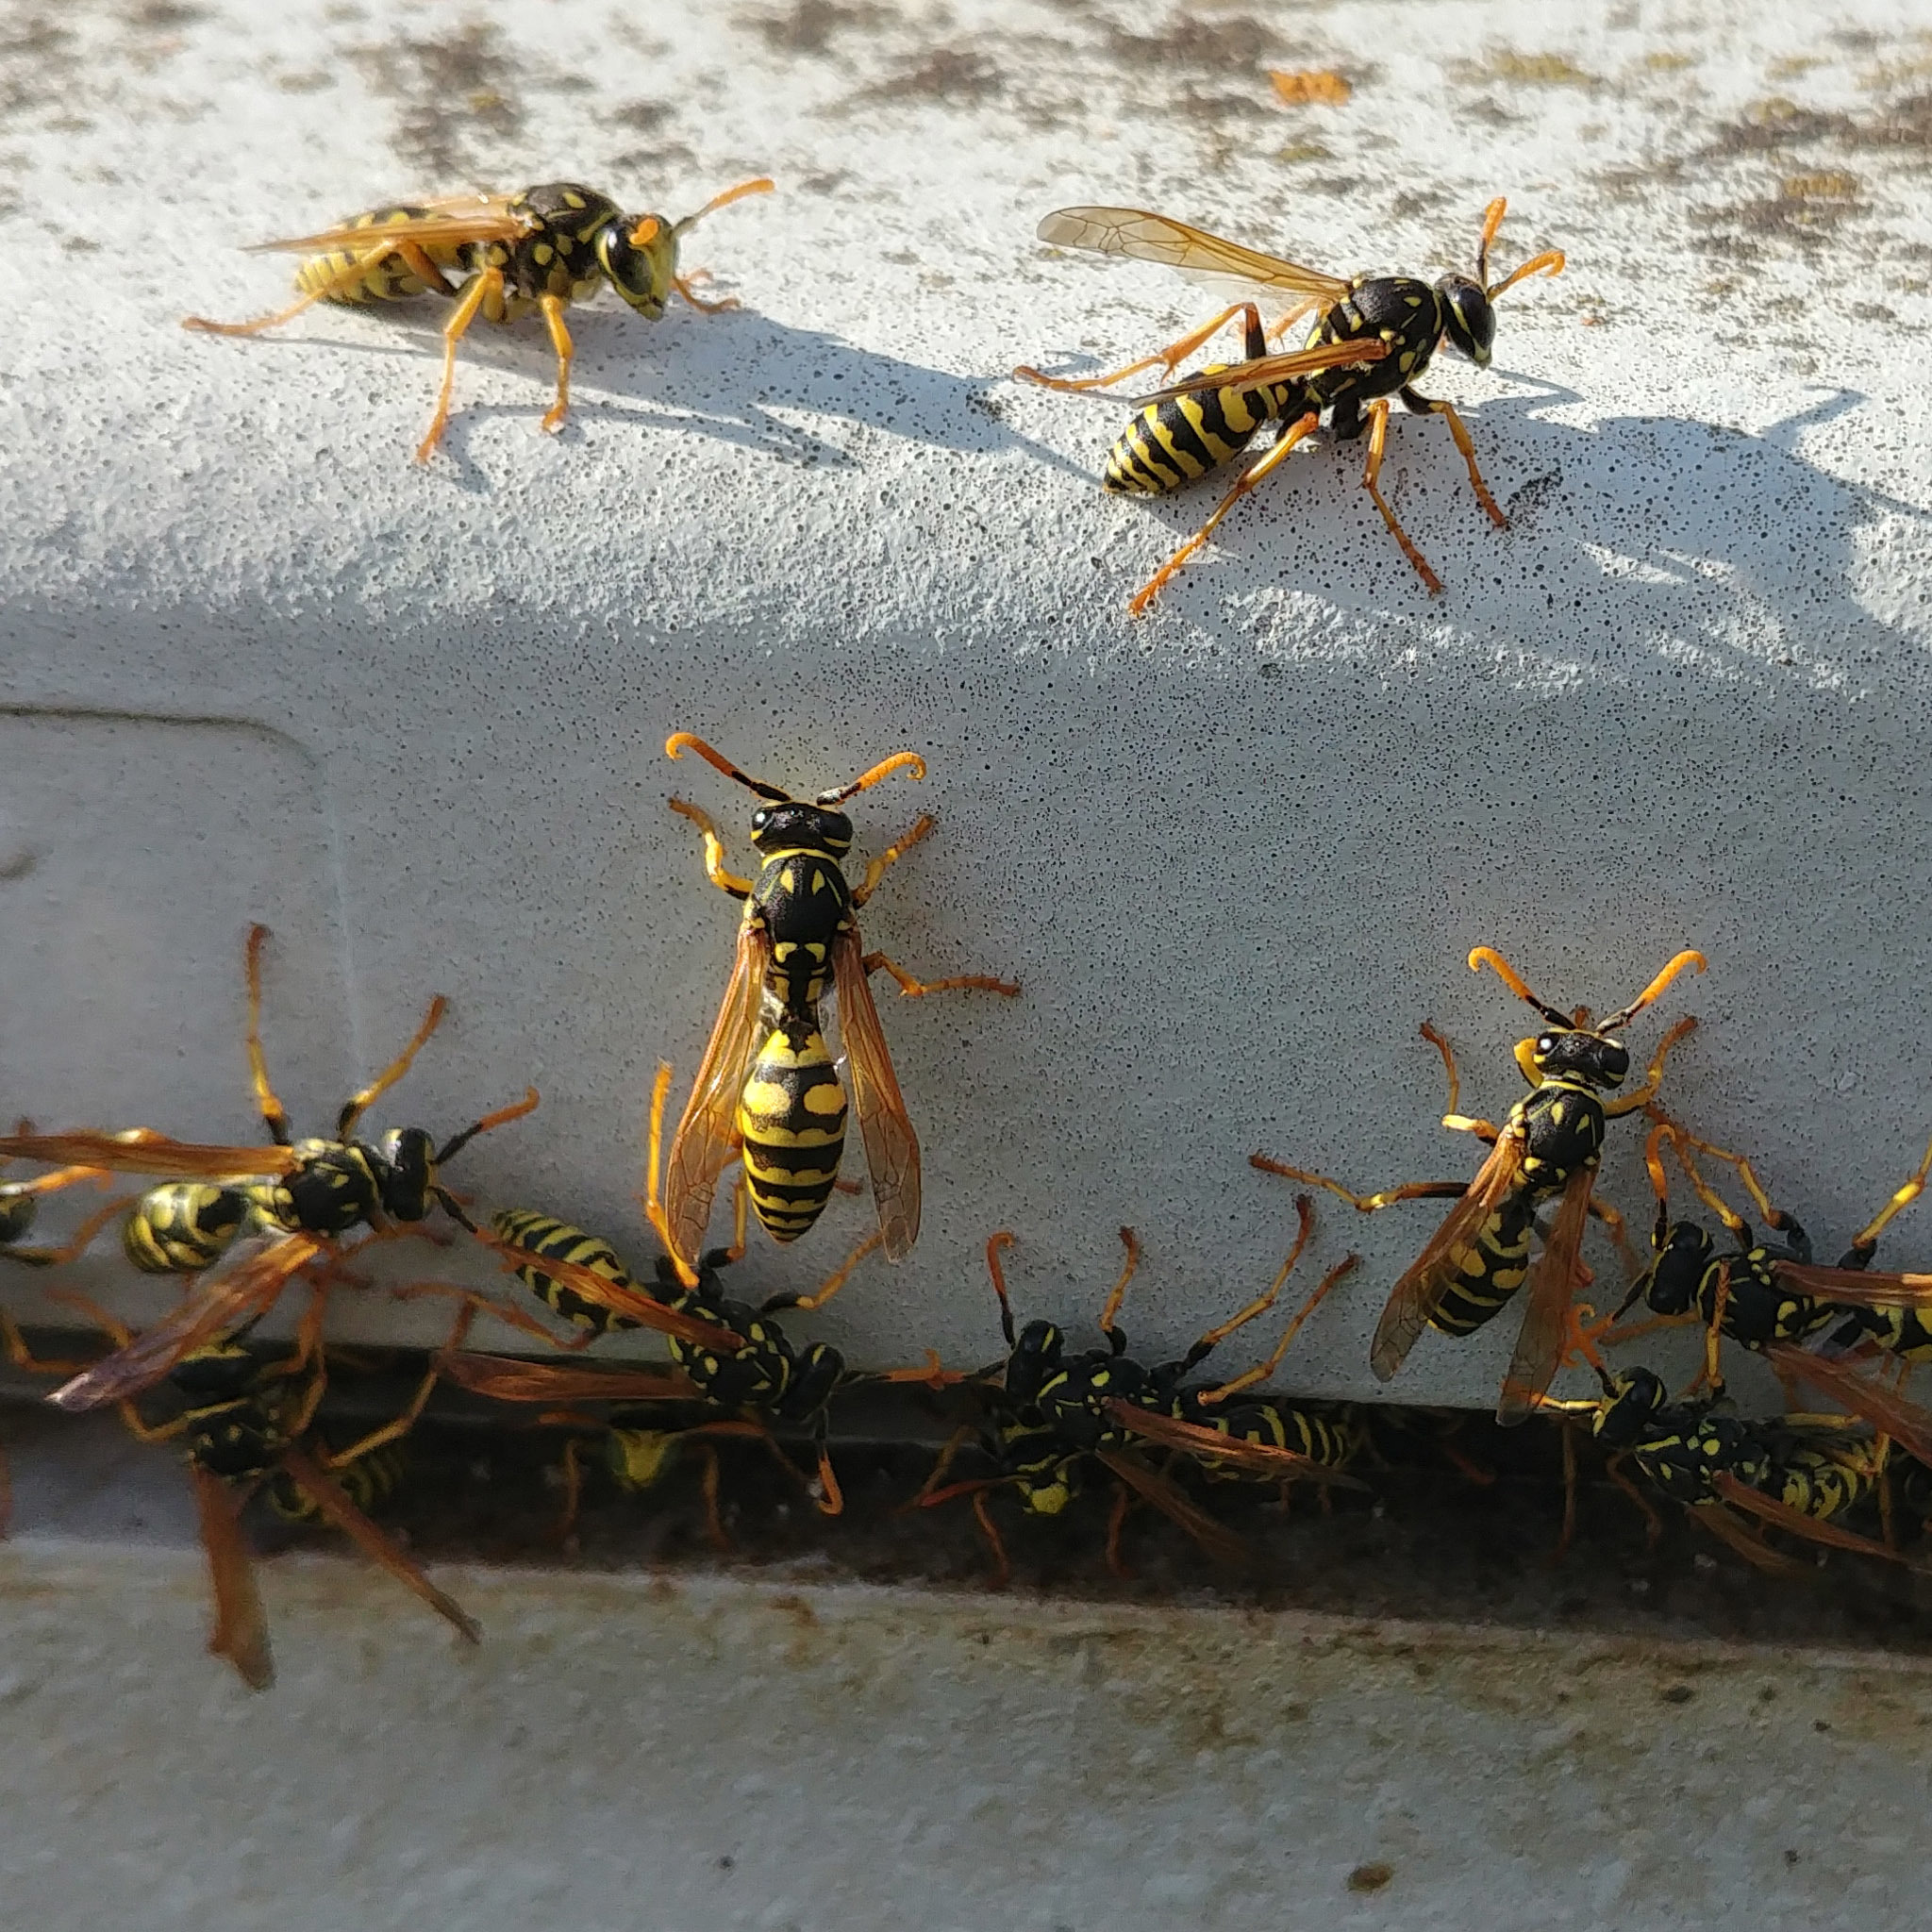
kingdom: Animalia
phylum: Arthropoda
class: Insecta
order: Hymenoptera
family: Eumenidae
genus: Polistes
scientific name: Polistes dominula
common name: Paper wasp
